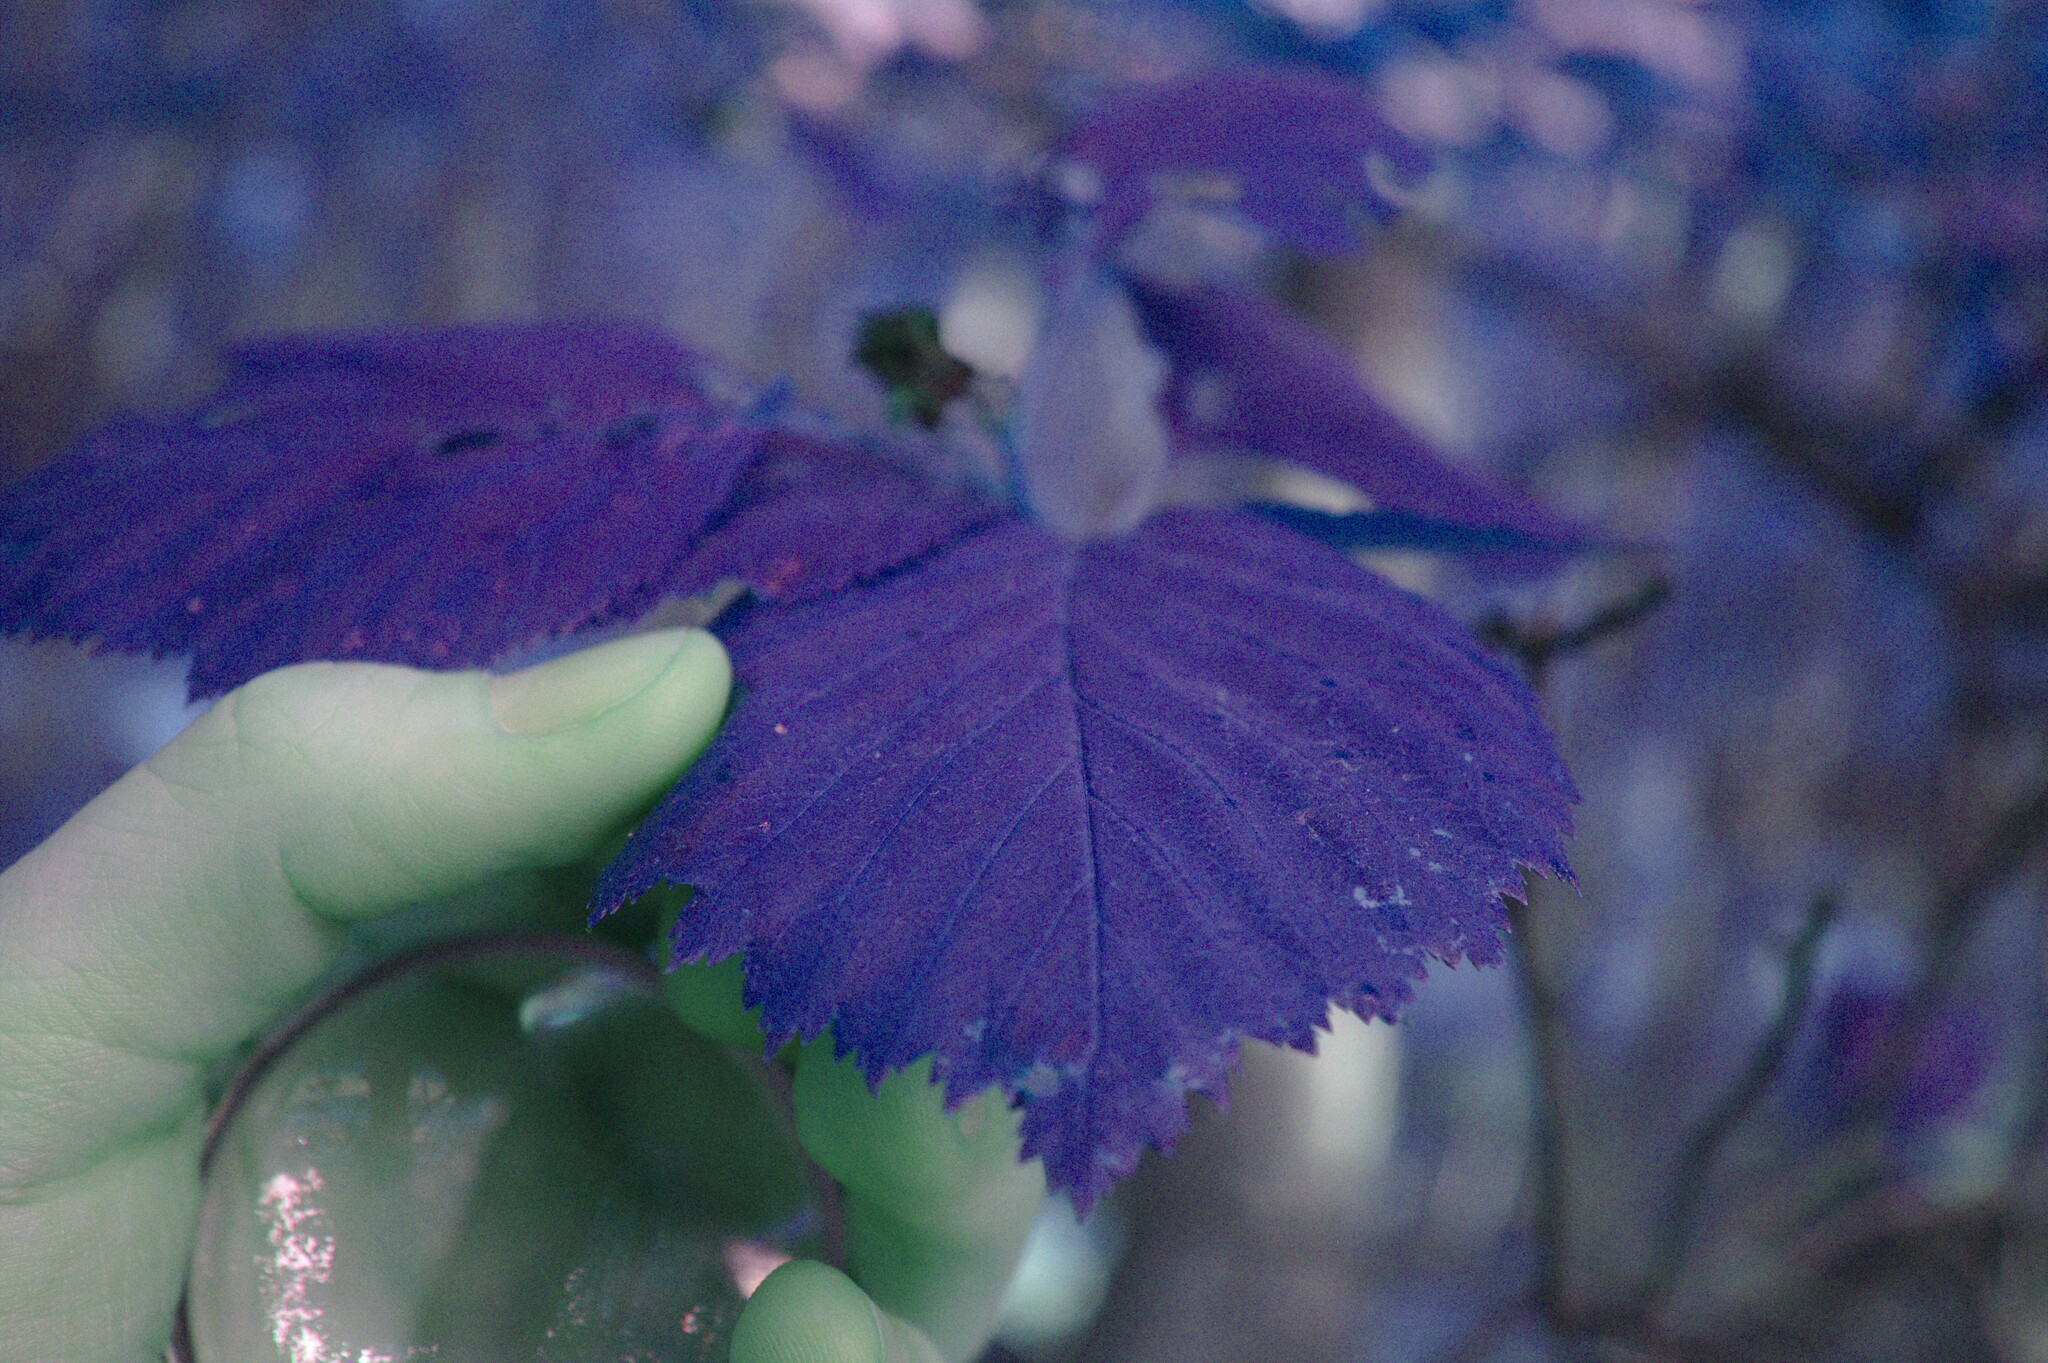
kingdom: Plantae
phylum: Tracheophyta
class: Magnoliopsida
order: Rosales
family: Rosaceae
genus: Crataegus
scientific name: Crataegus macracantha
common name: Large-thorn hawthorn
